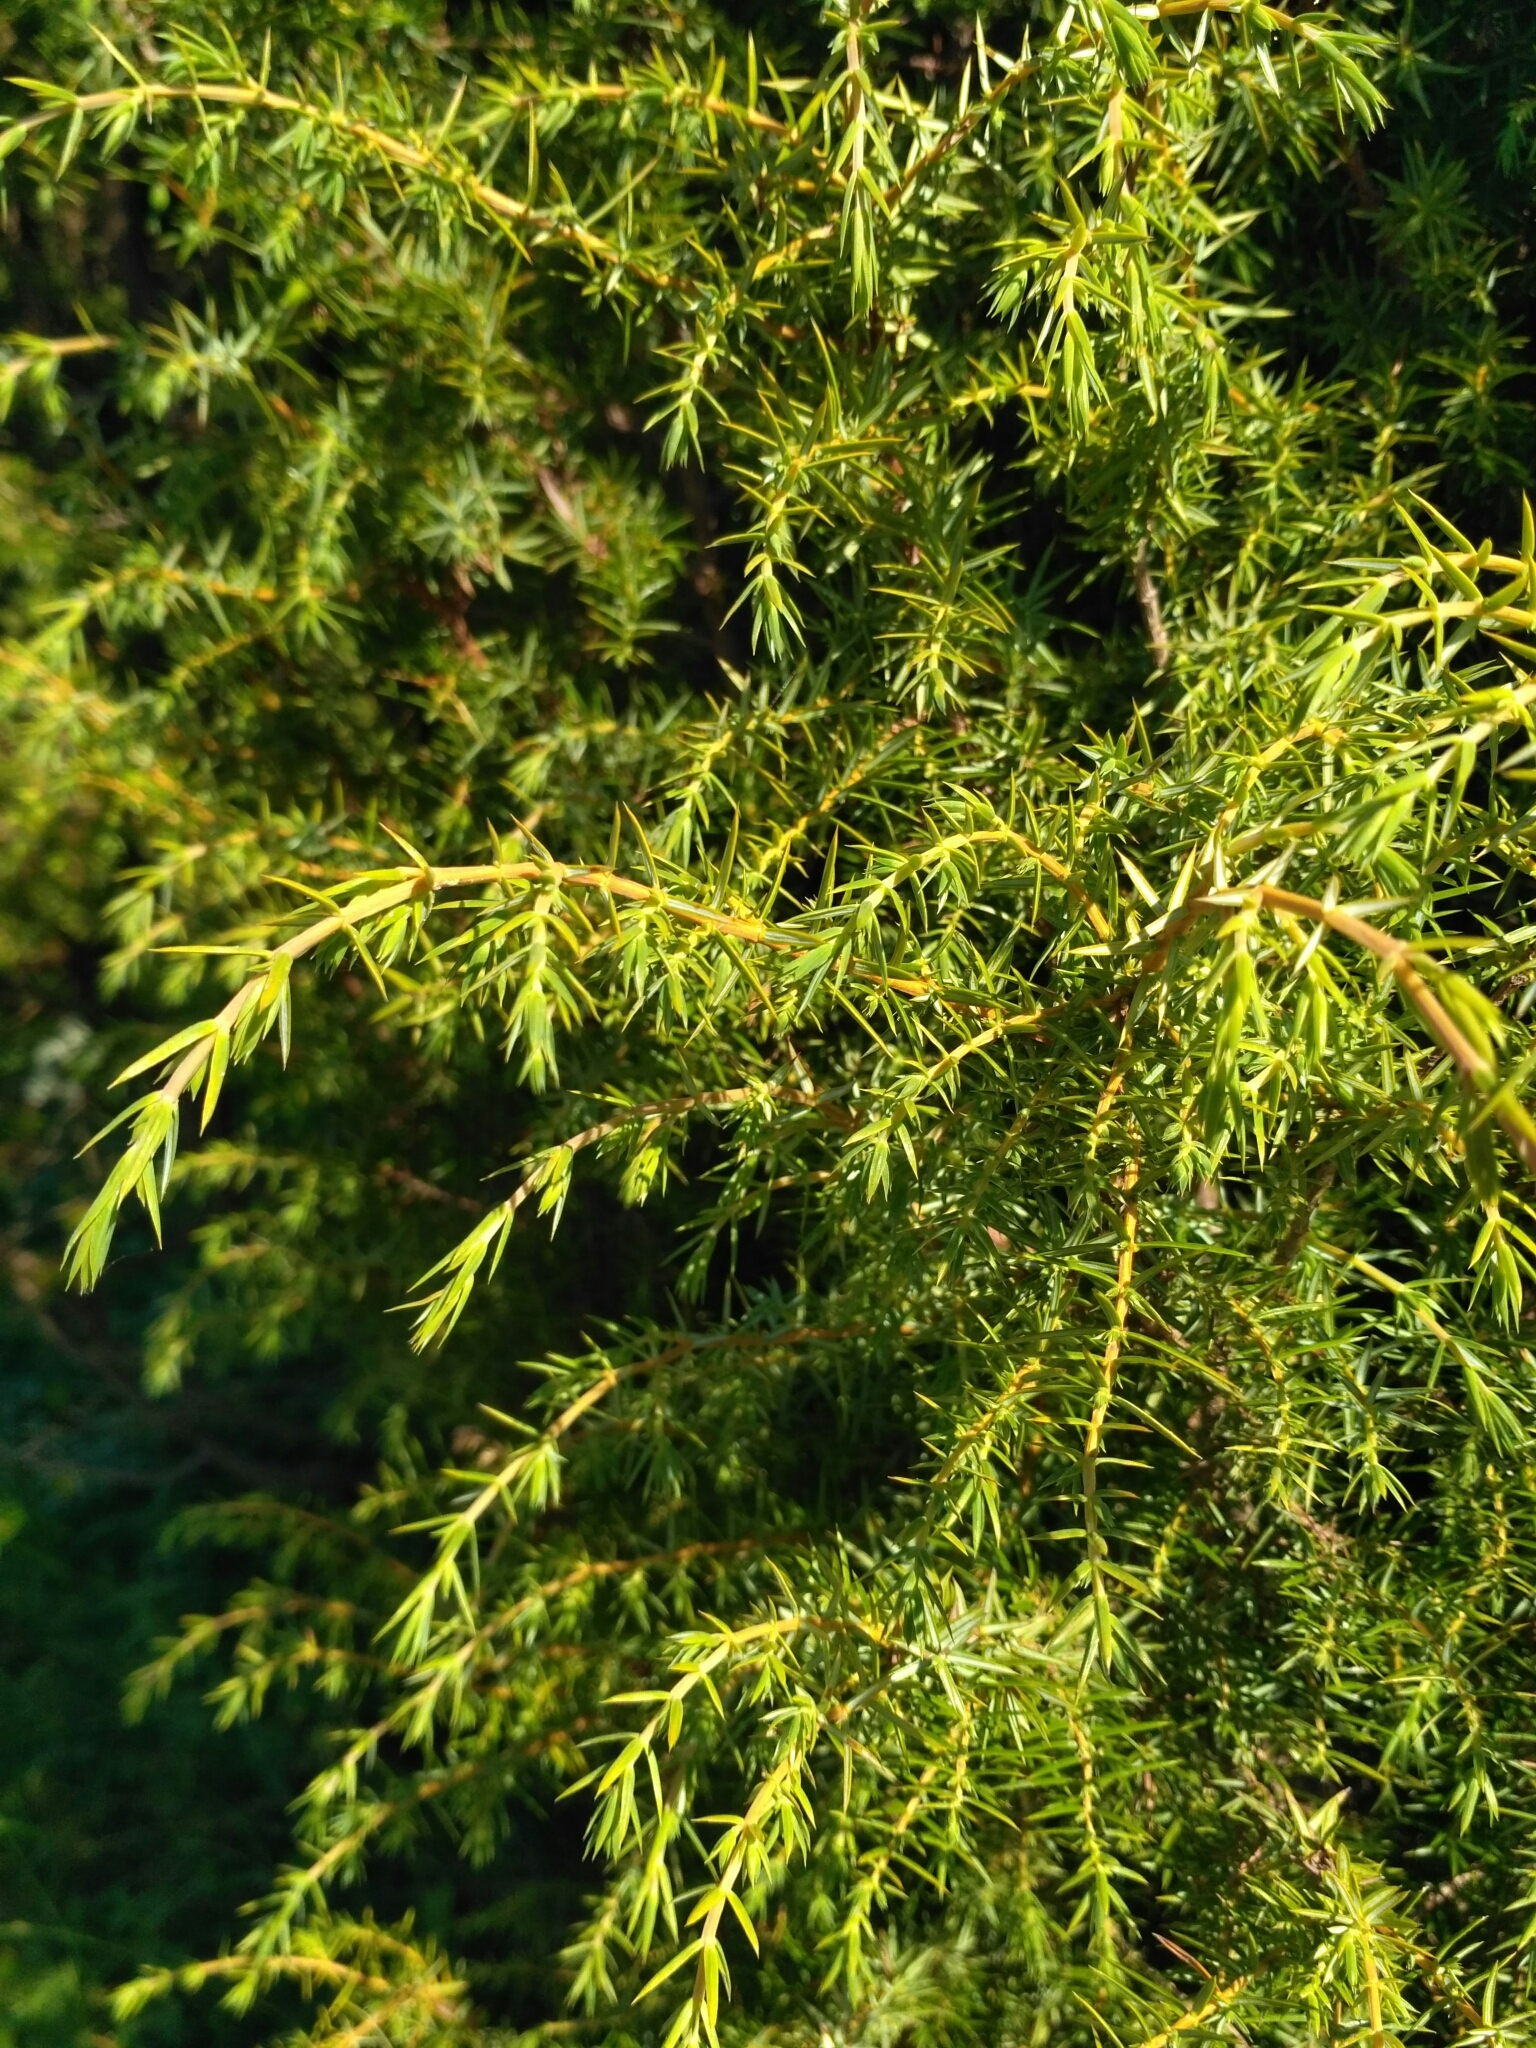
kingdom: Plantae
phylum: Tracheophyta
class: Pinopsida
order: Pinales
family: Cupressaceae
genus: Juniperus
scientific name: Juniperus communis
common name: Common juniper
